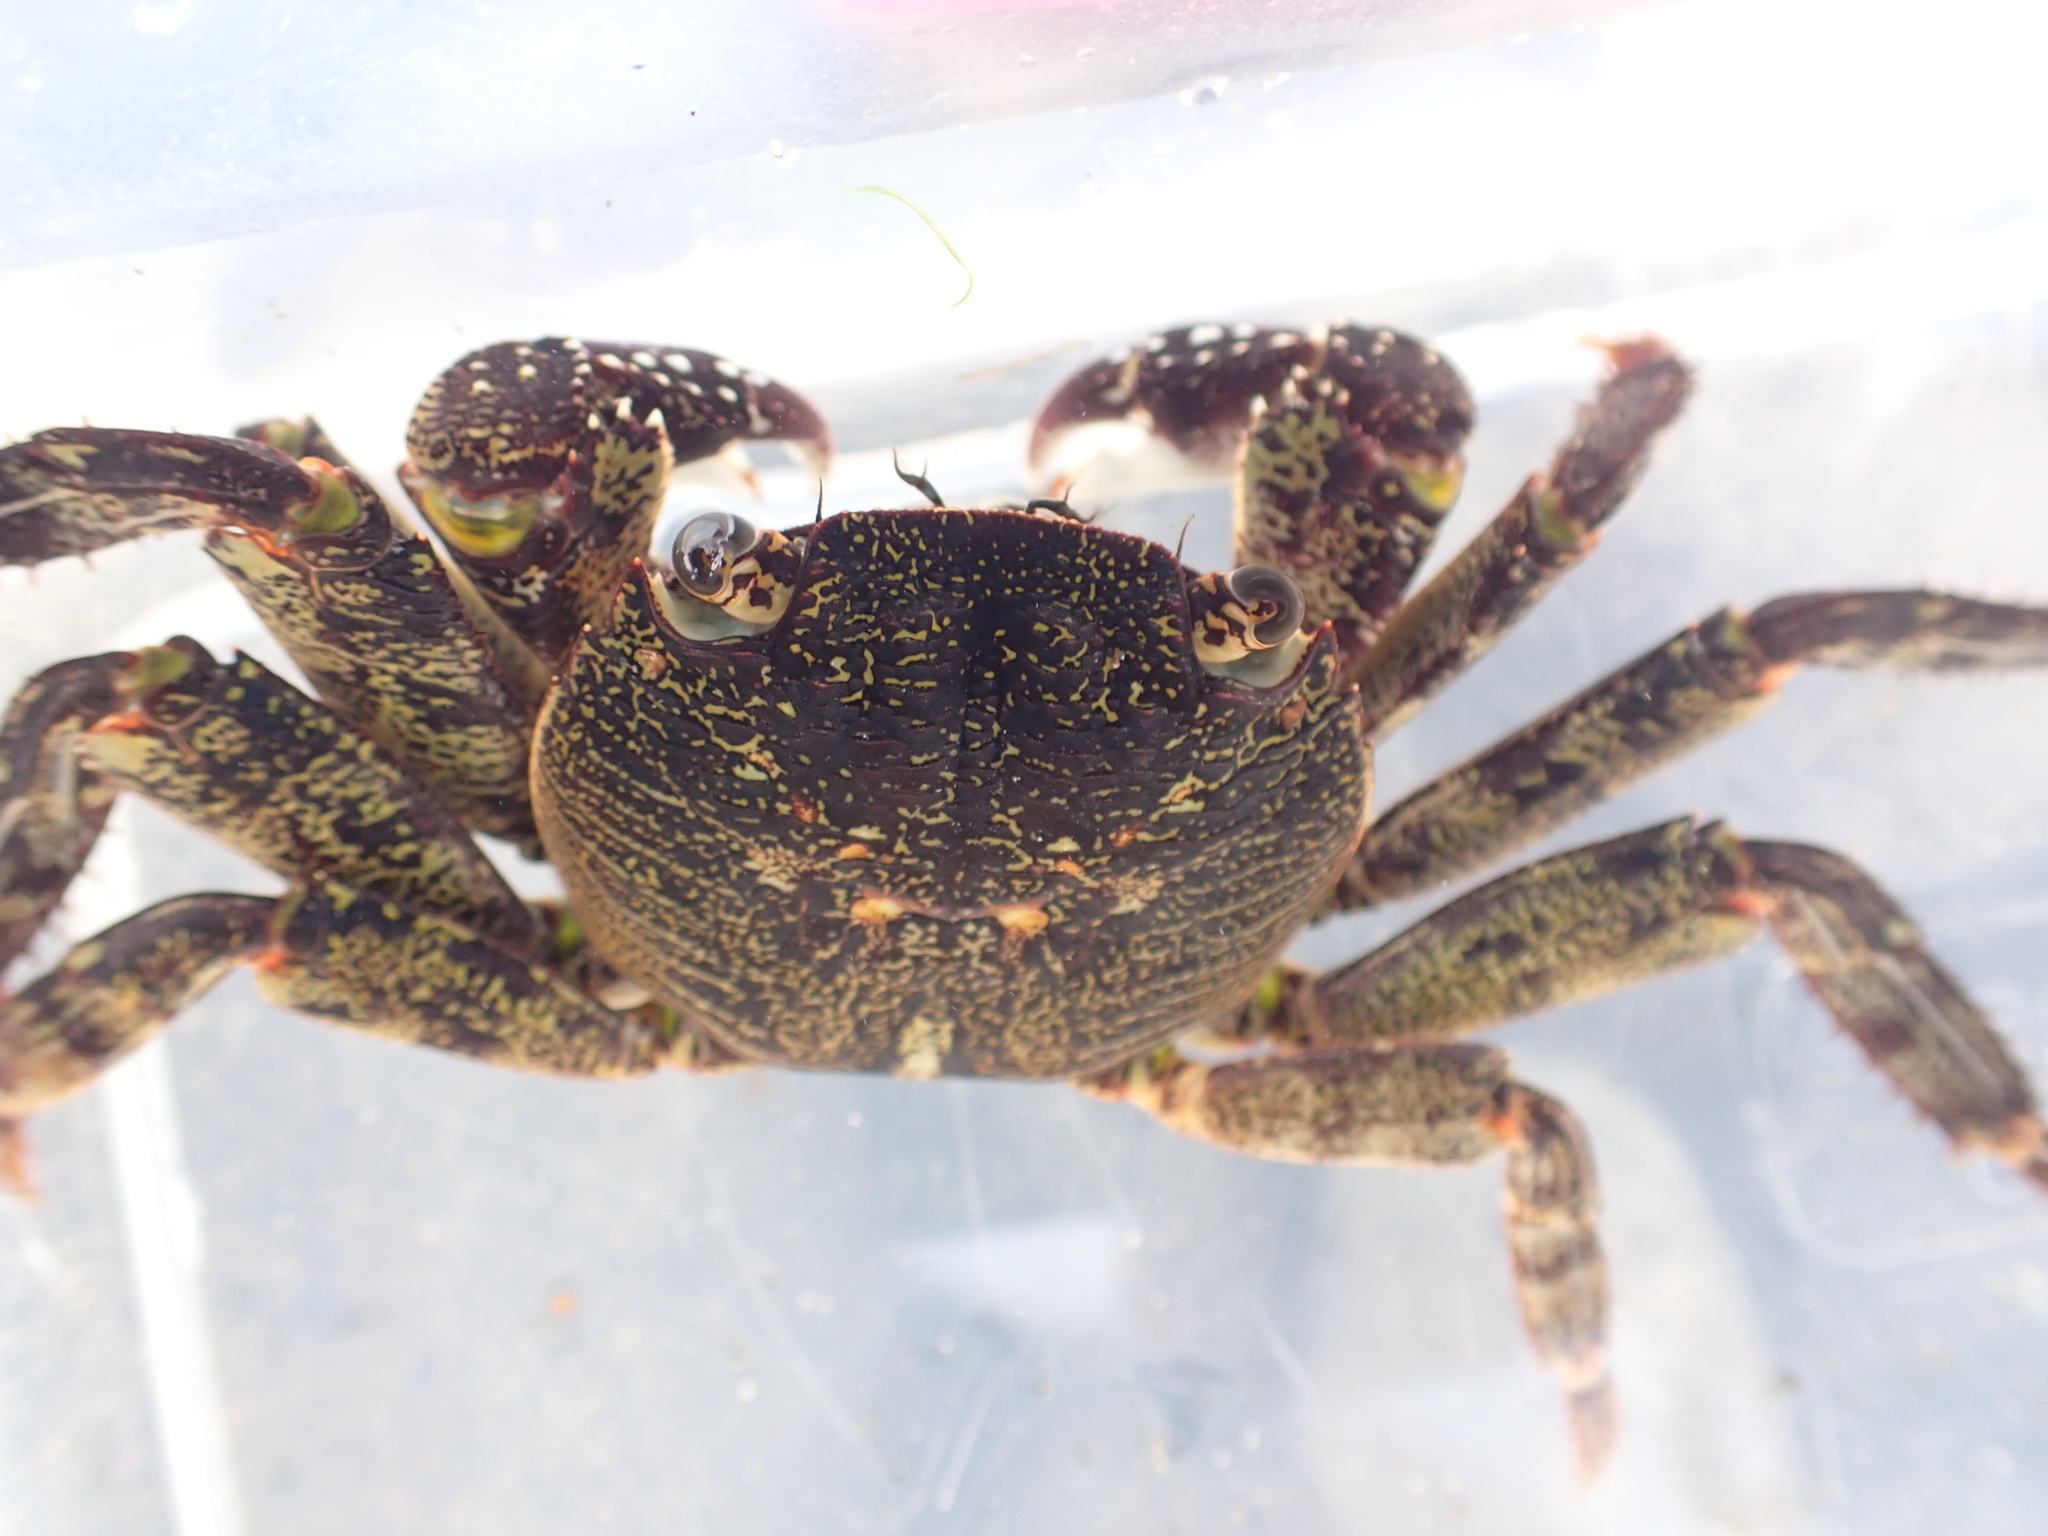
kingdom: Animalia
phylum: Arthropoda
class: Malacostraca
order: Decapoda
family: Grapsidae
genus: Leptograpsus
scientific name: Leptograpsus variegatus
